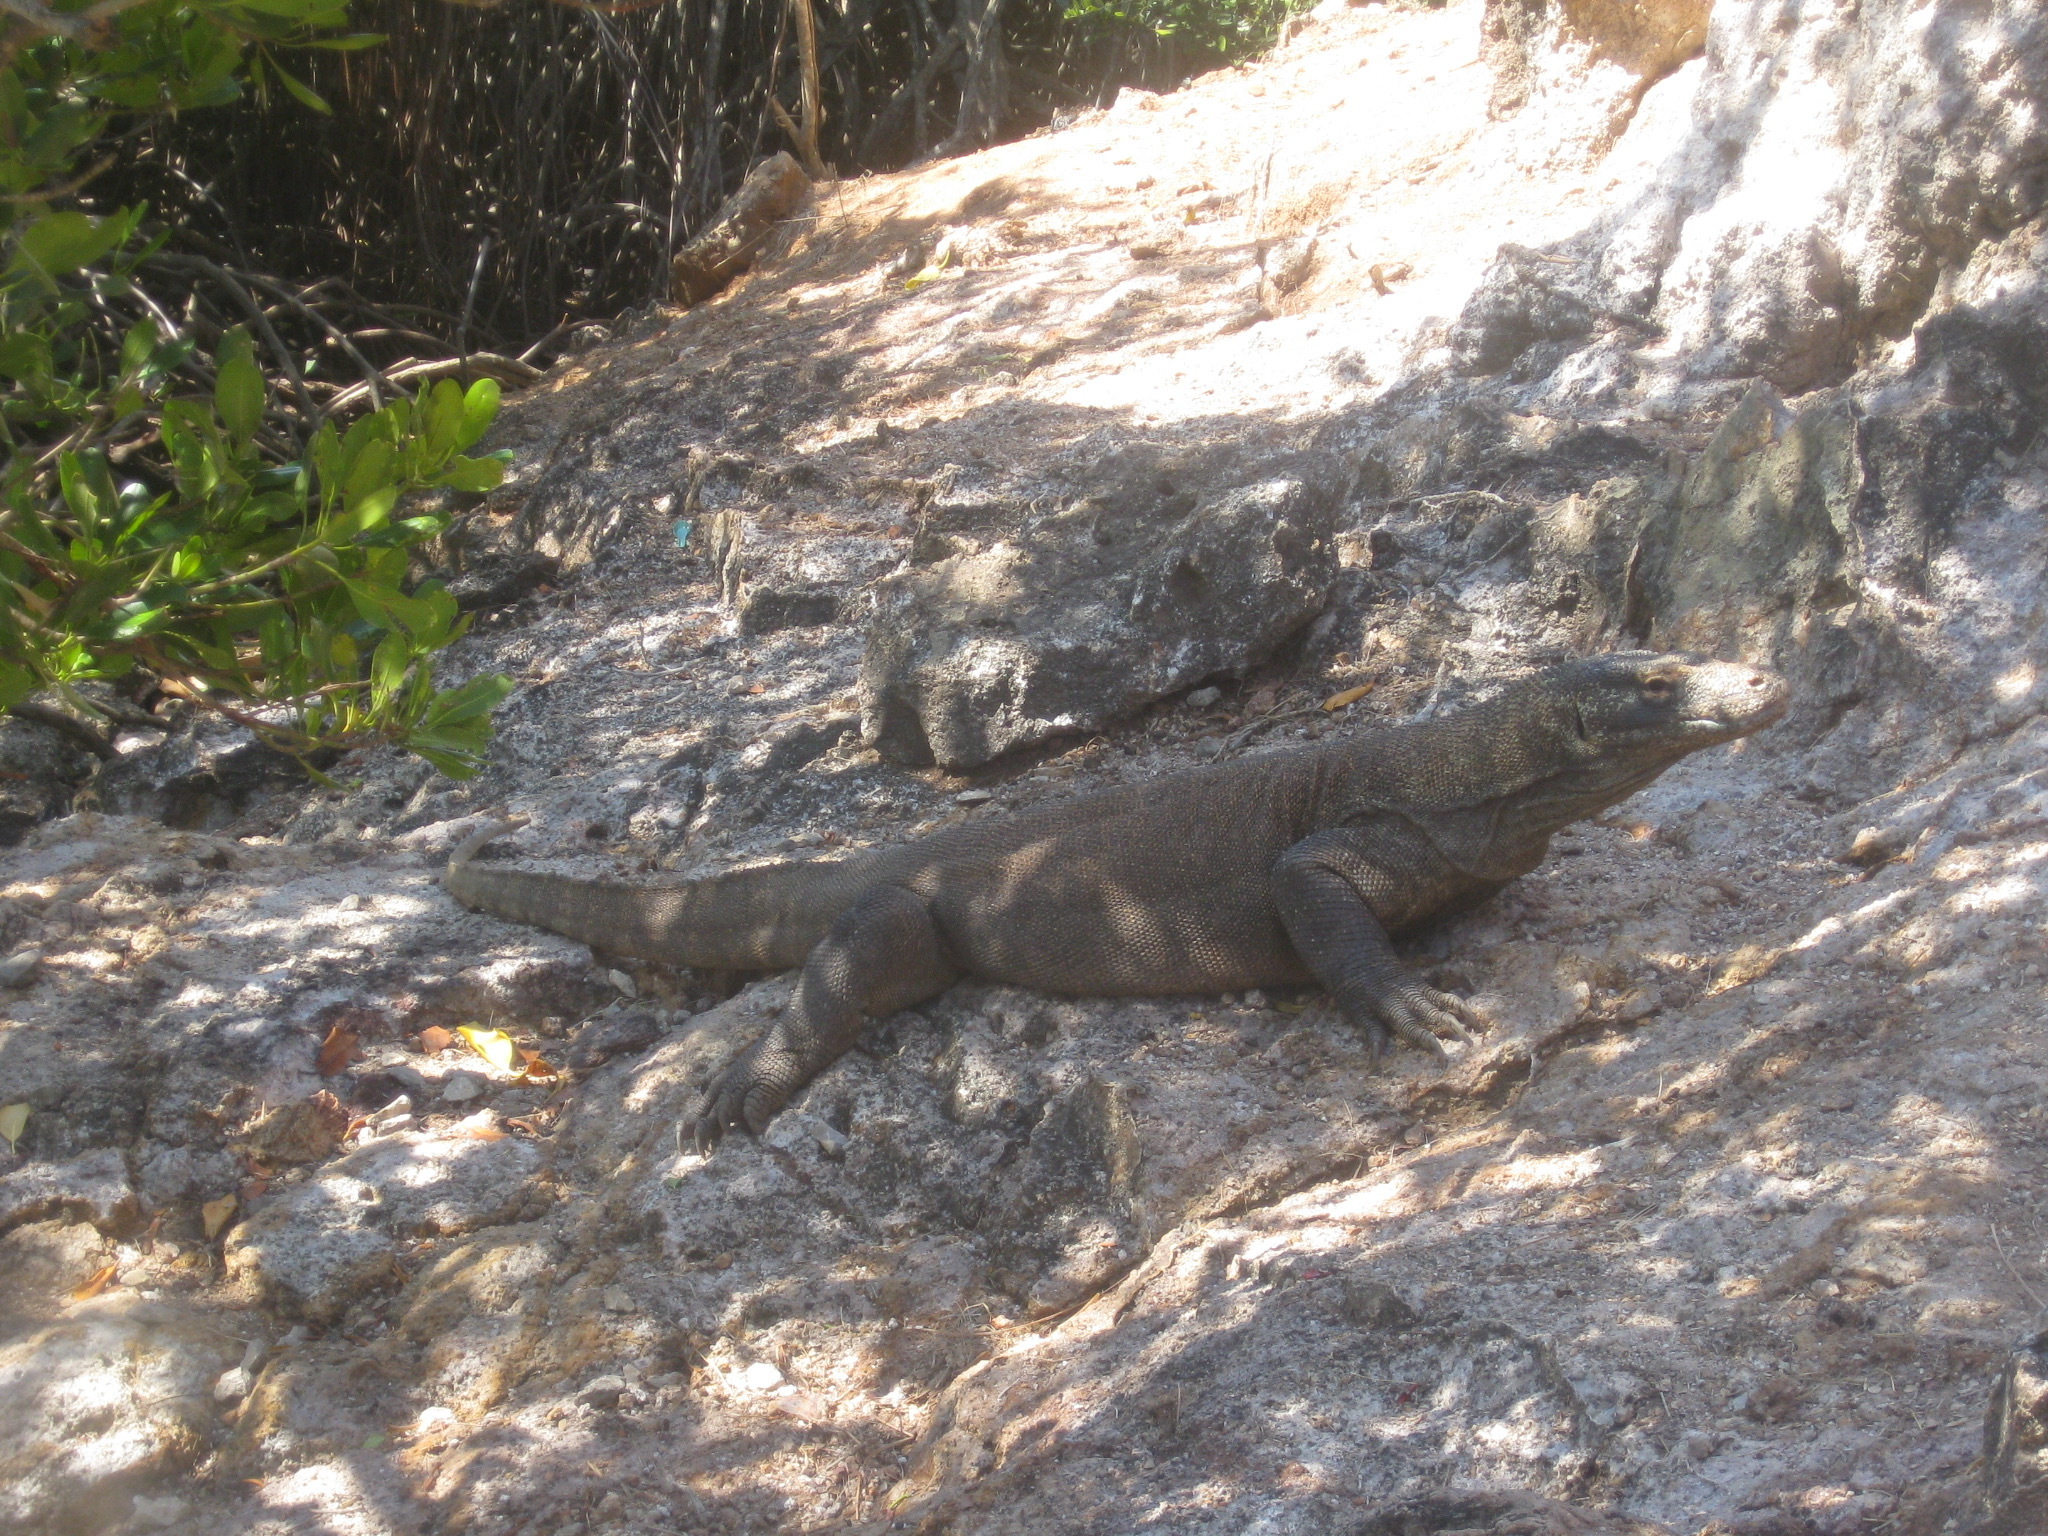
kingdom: Animalia
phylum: Chordata
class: Squamata
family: Varanidae
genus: Varanus
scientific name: Varanus komodoensis
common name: Komodo dragon
